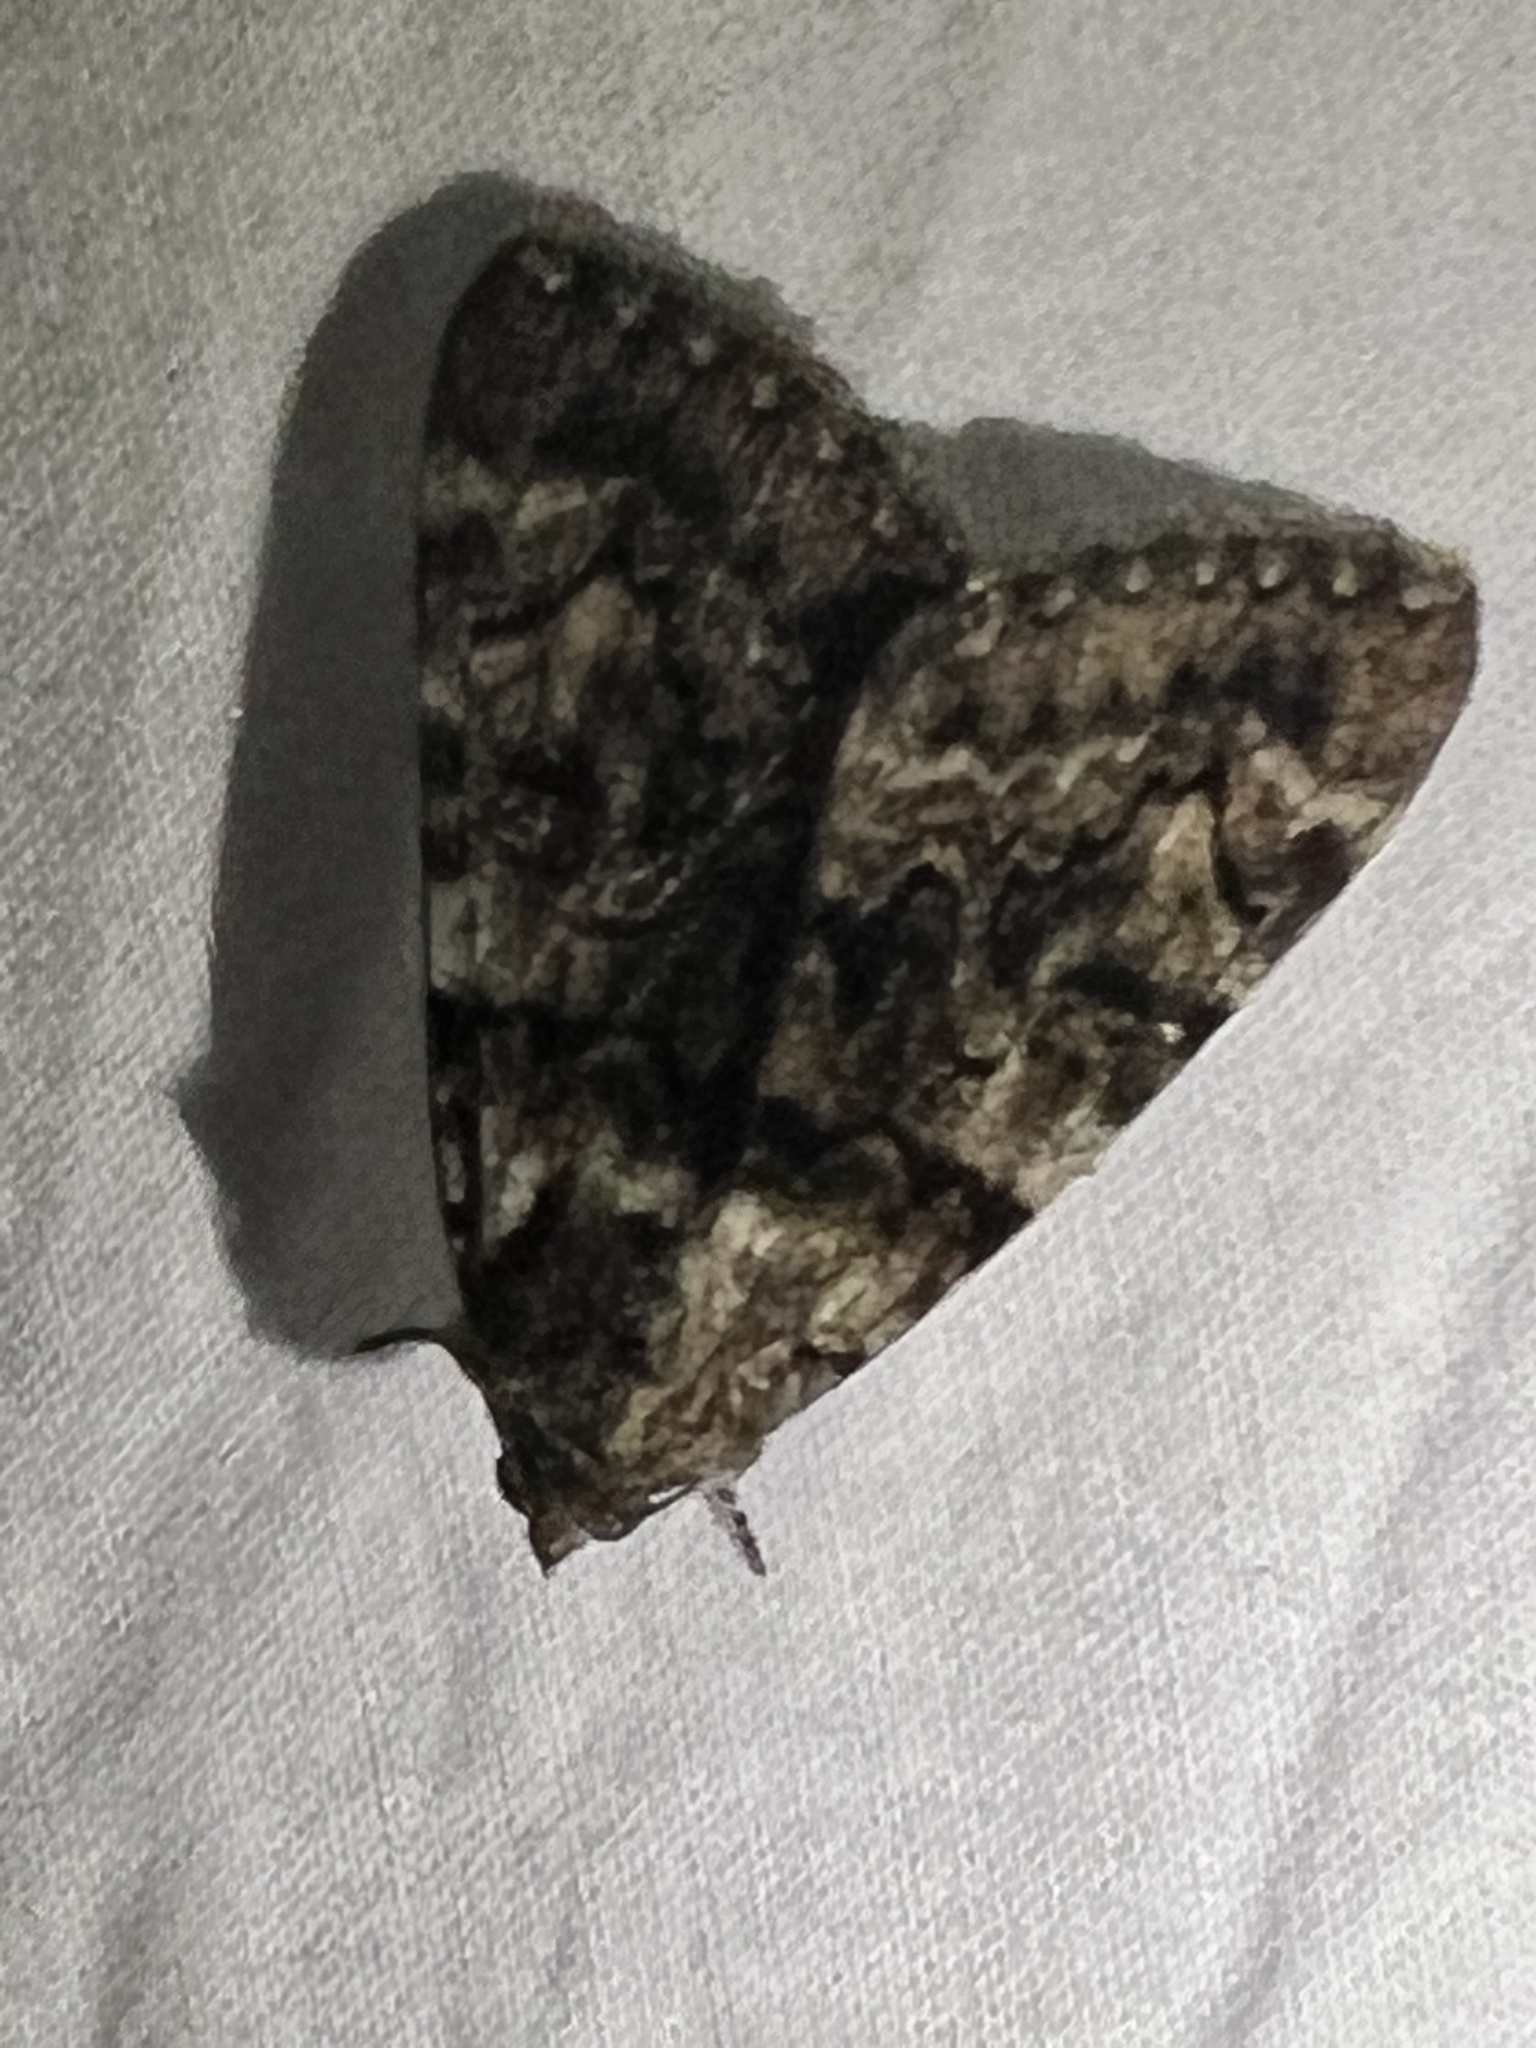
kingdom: Animalia
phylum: Arthropoda
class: Insecta
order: Lepidoptera
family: Erebidae
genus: Catocala
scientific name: Catocala nymphagoga
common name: Oak yellow underwing
